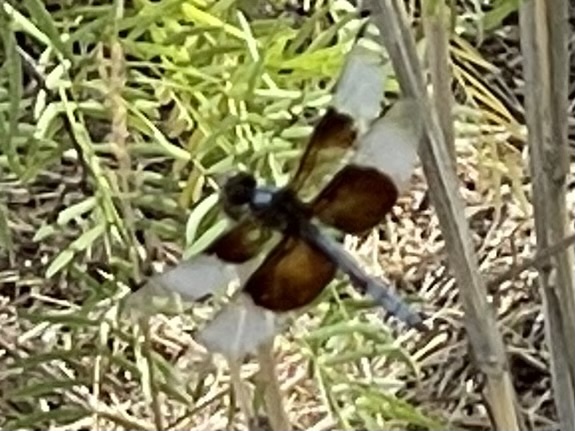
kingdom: Animalia
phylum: Arthropoda
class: Insecta
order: Odonata
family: Libellulidae
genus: Libellula
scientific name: Libellula luctuosa
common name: Widow skimmer
